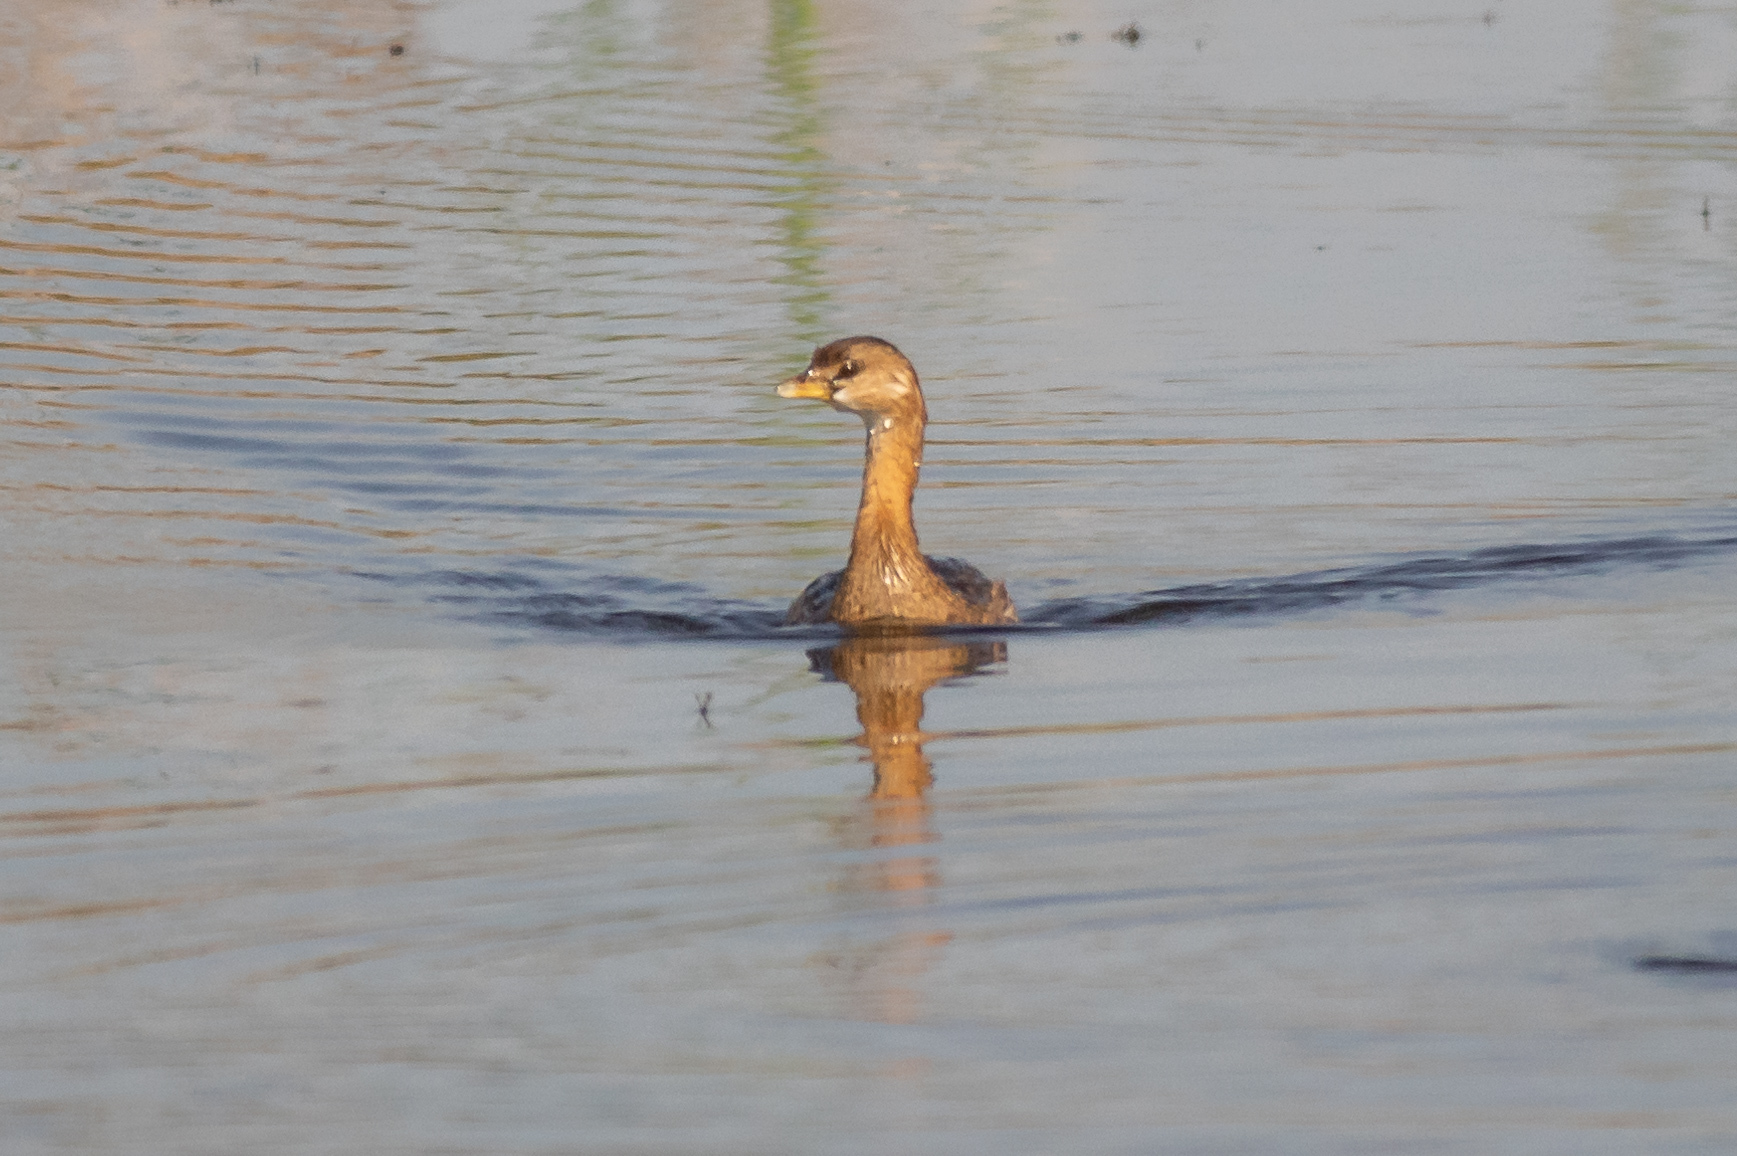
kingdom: Animalia
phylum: Chordata
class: Aves
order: Podicipediformes
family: Podicipedidae
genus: Podilymbus
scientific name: Podilymbus podiceps
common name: Pied-billed grebe
